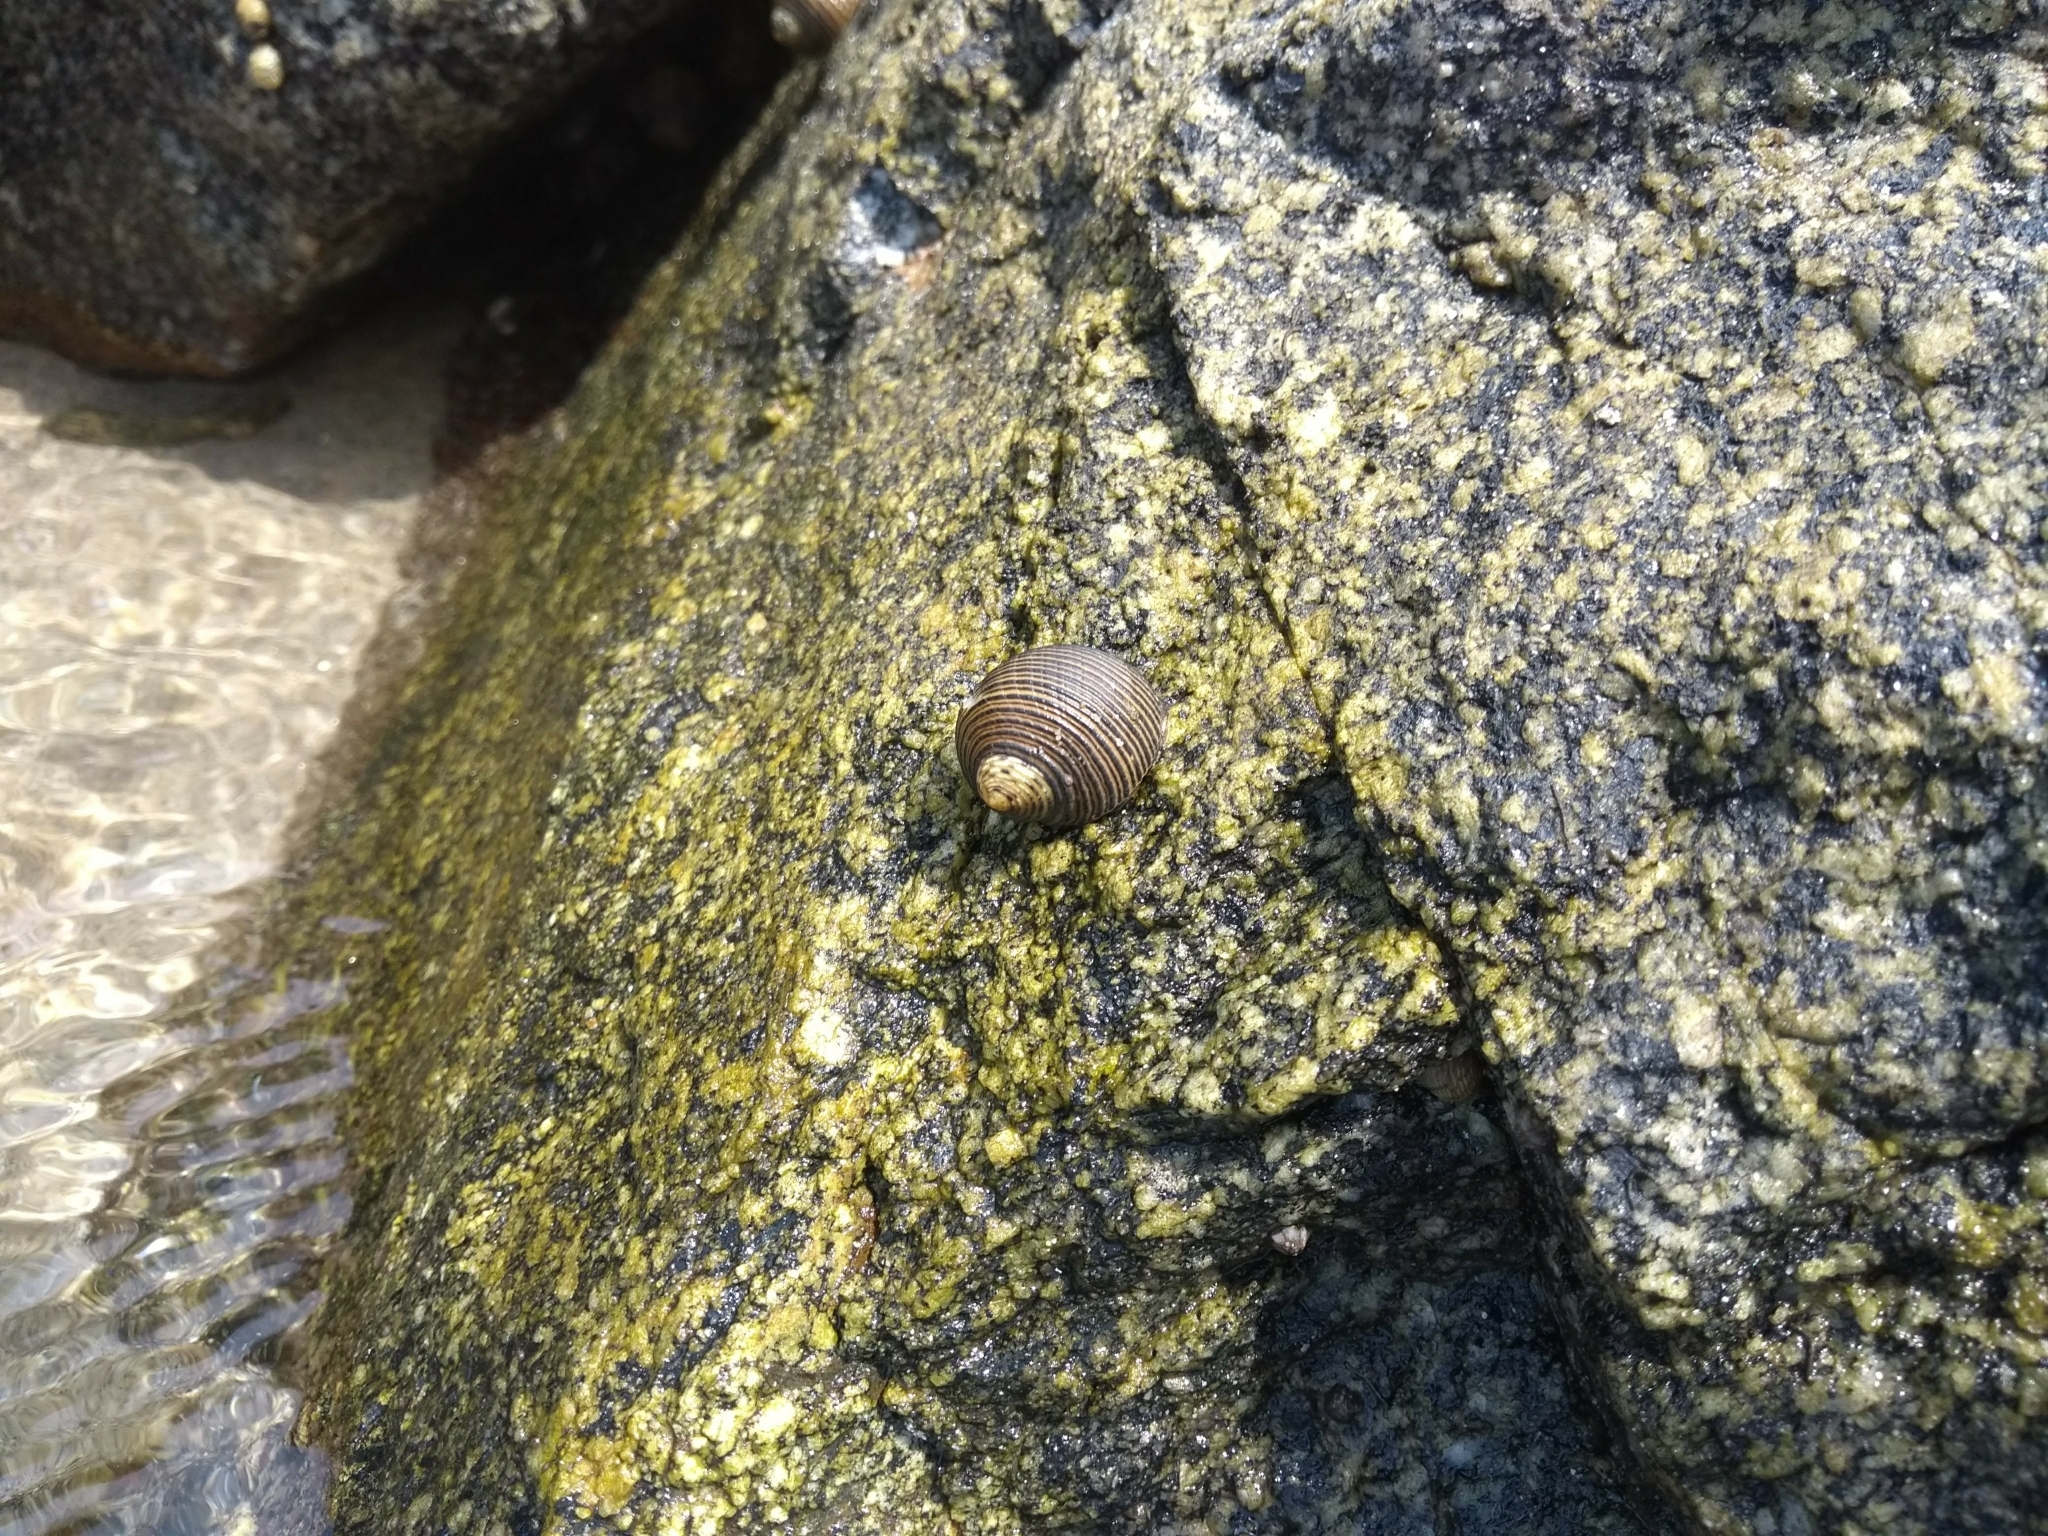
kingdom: Animalia
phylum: Mollusca
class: Gastropoda
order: Cycloneritida
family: Neritidae
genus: Nerita
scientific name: Nerita scabricosta
